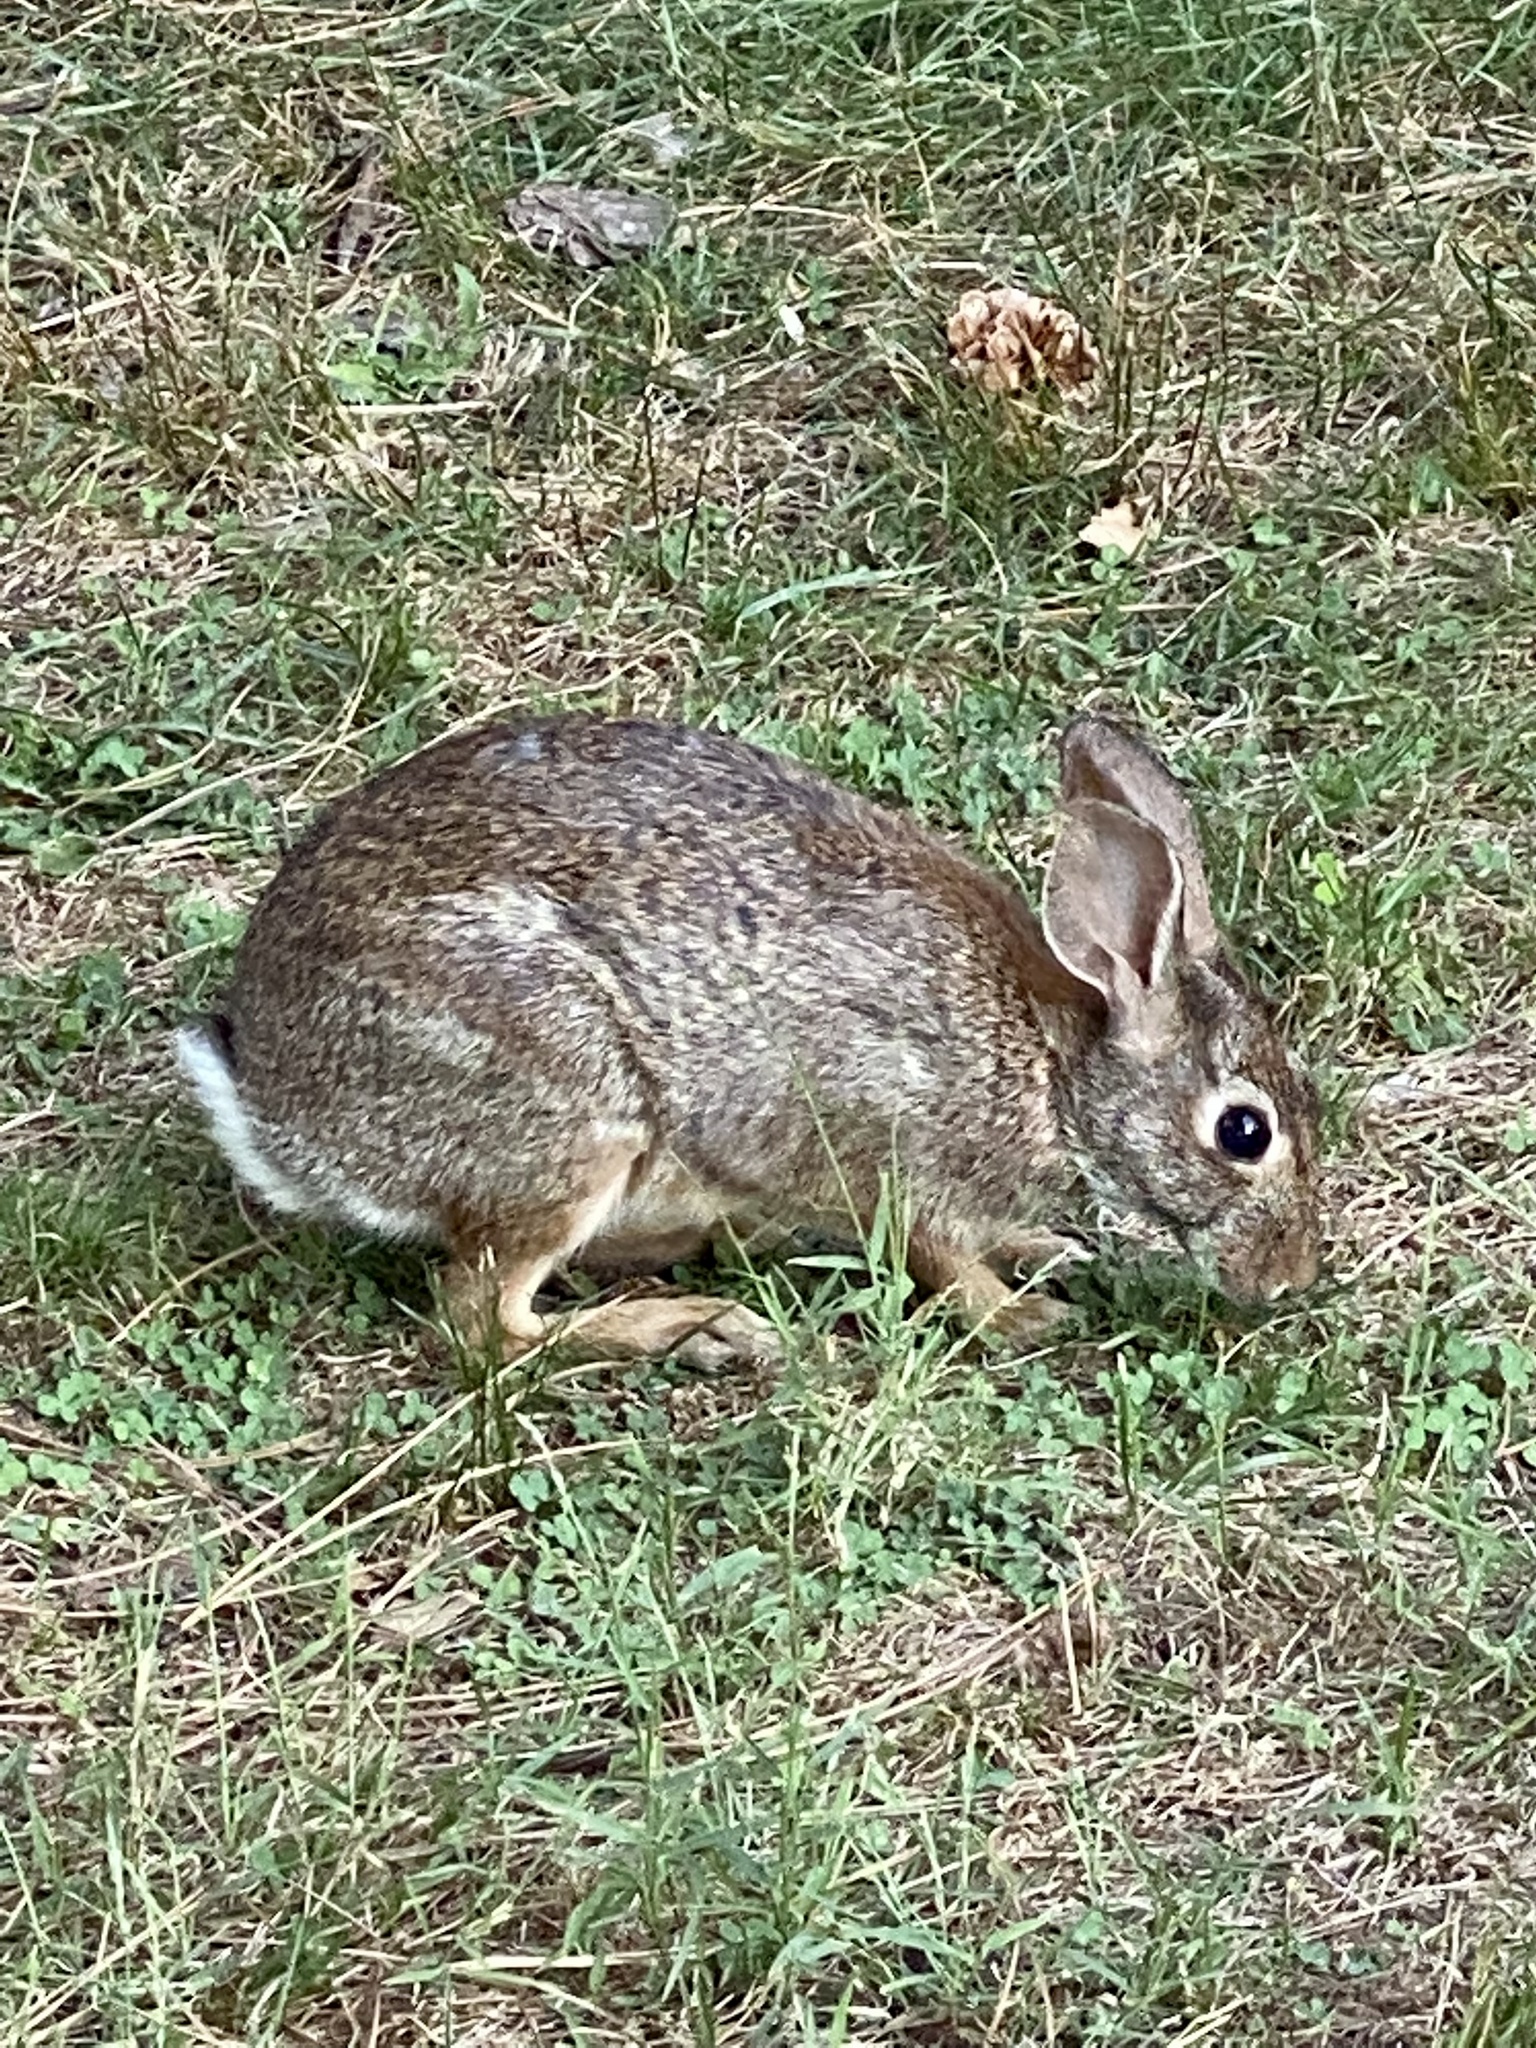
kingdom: Animalia
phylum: Chordata
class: Mammalia
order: Lagomorpha
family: Leporidae
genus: Sylvilagus
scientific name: Sylvilagus floridanus
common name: Eastern cottontail
